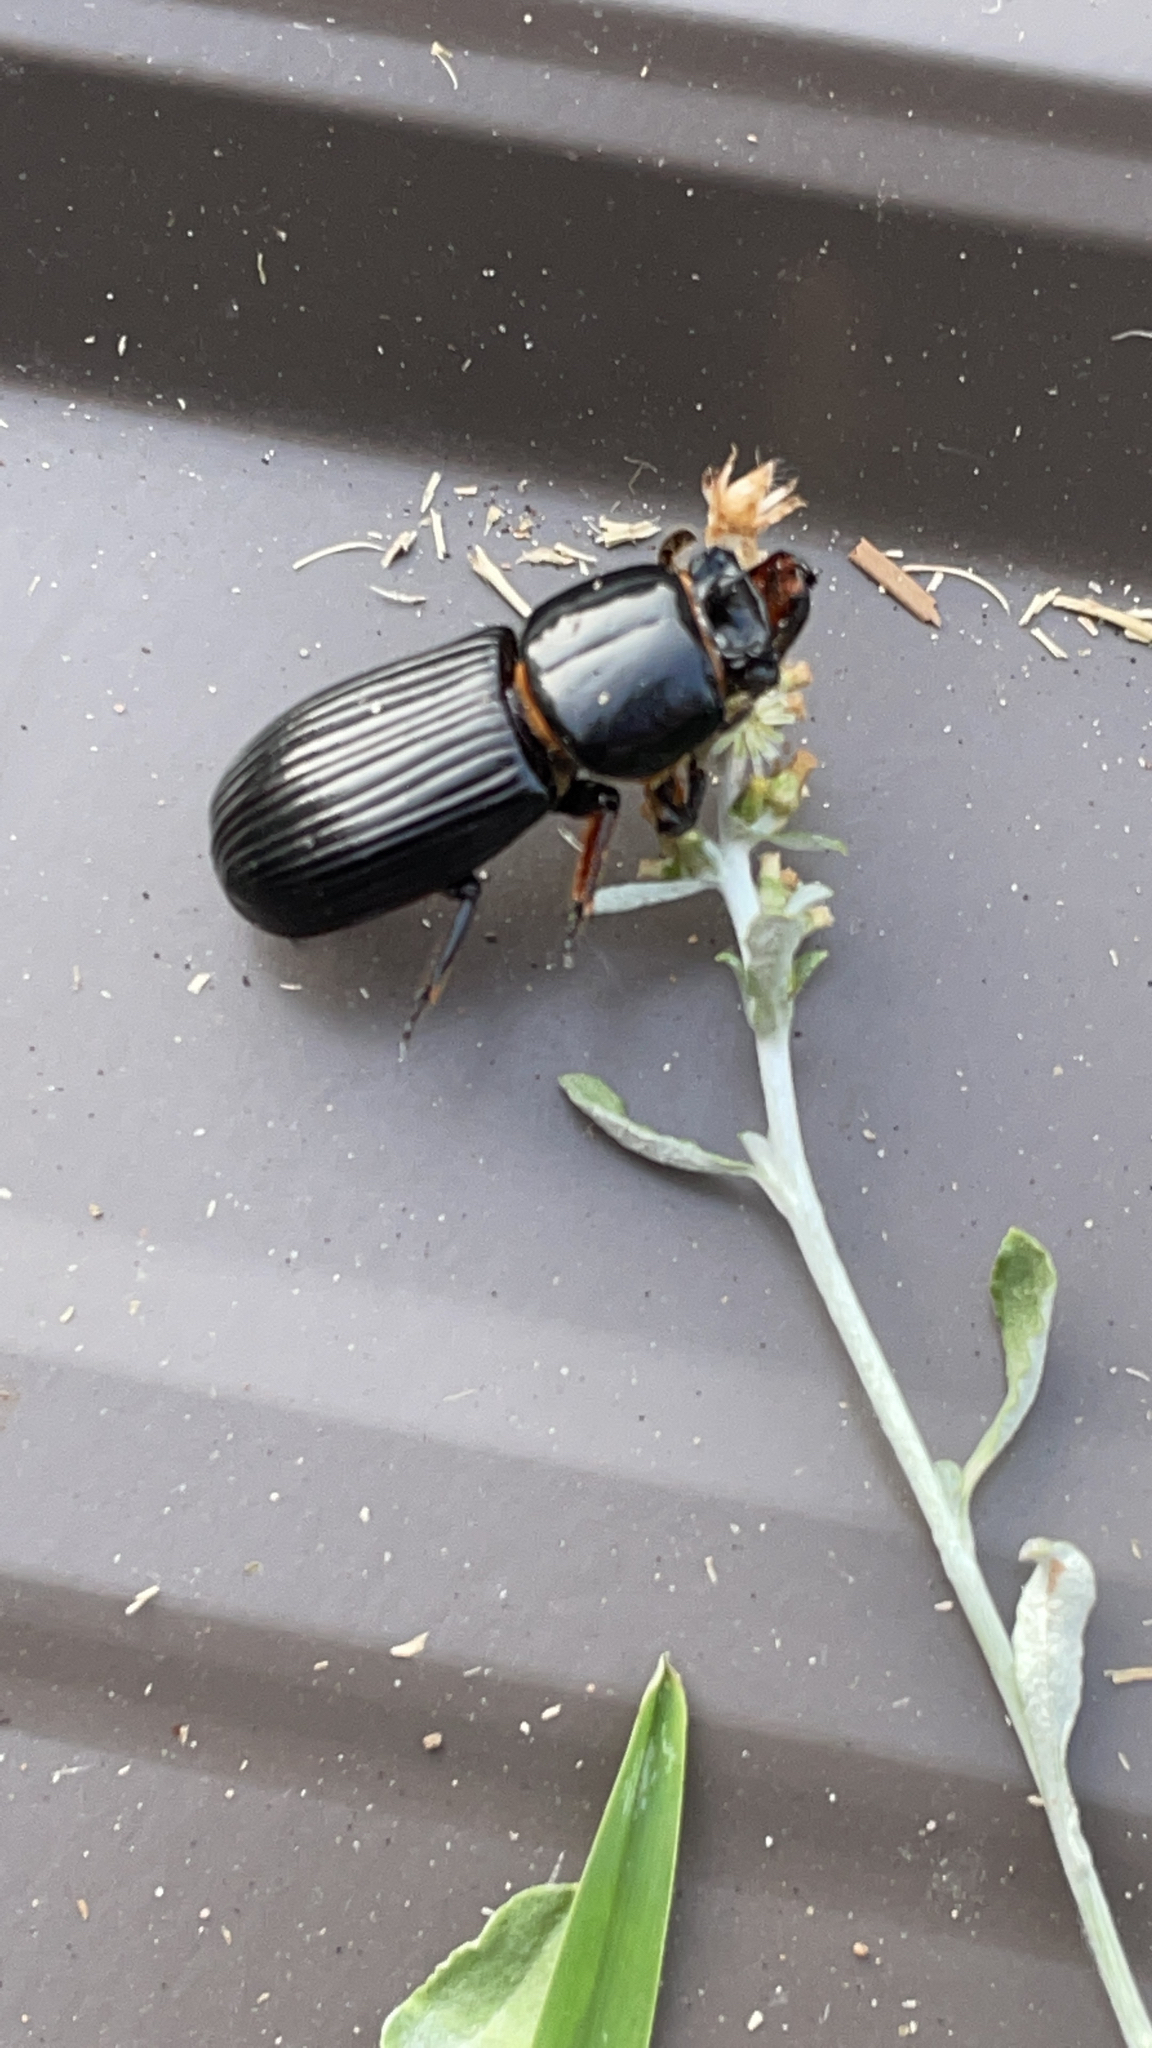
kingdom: Animalia
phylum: Arthropoda
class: Insecta
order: Coleoptera
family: Passalidae
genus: Odontotaenius
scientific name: Odontotaenius disjunctus
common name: Patent leather beetle
